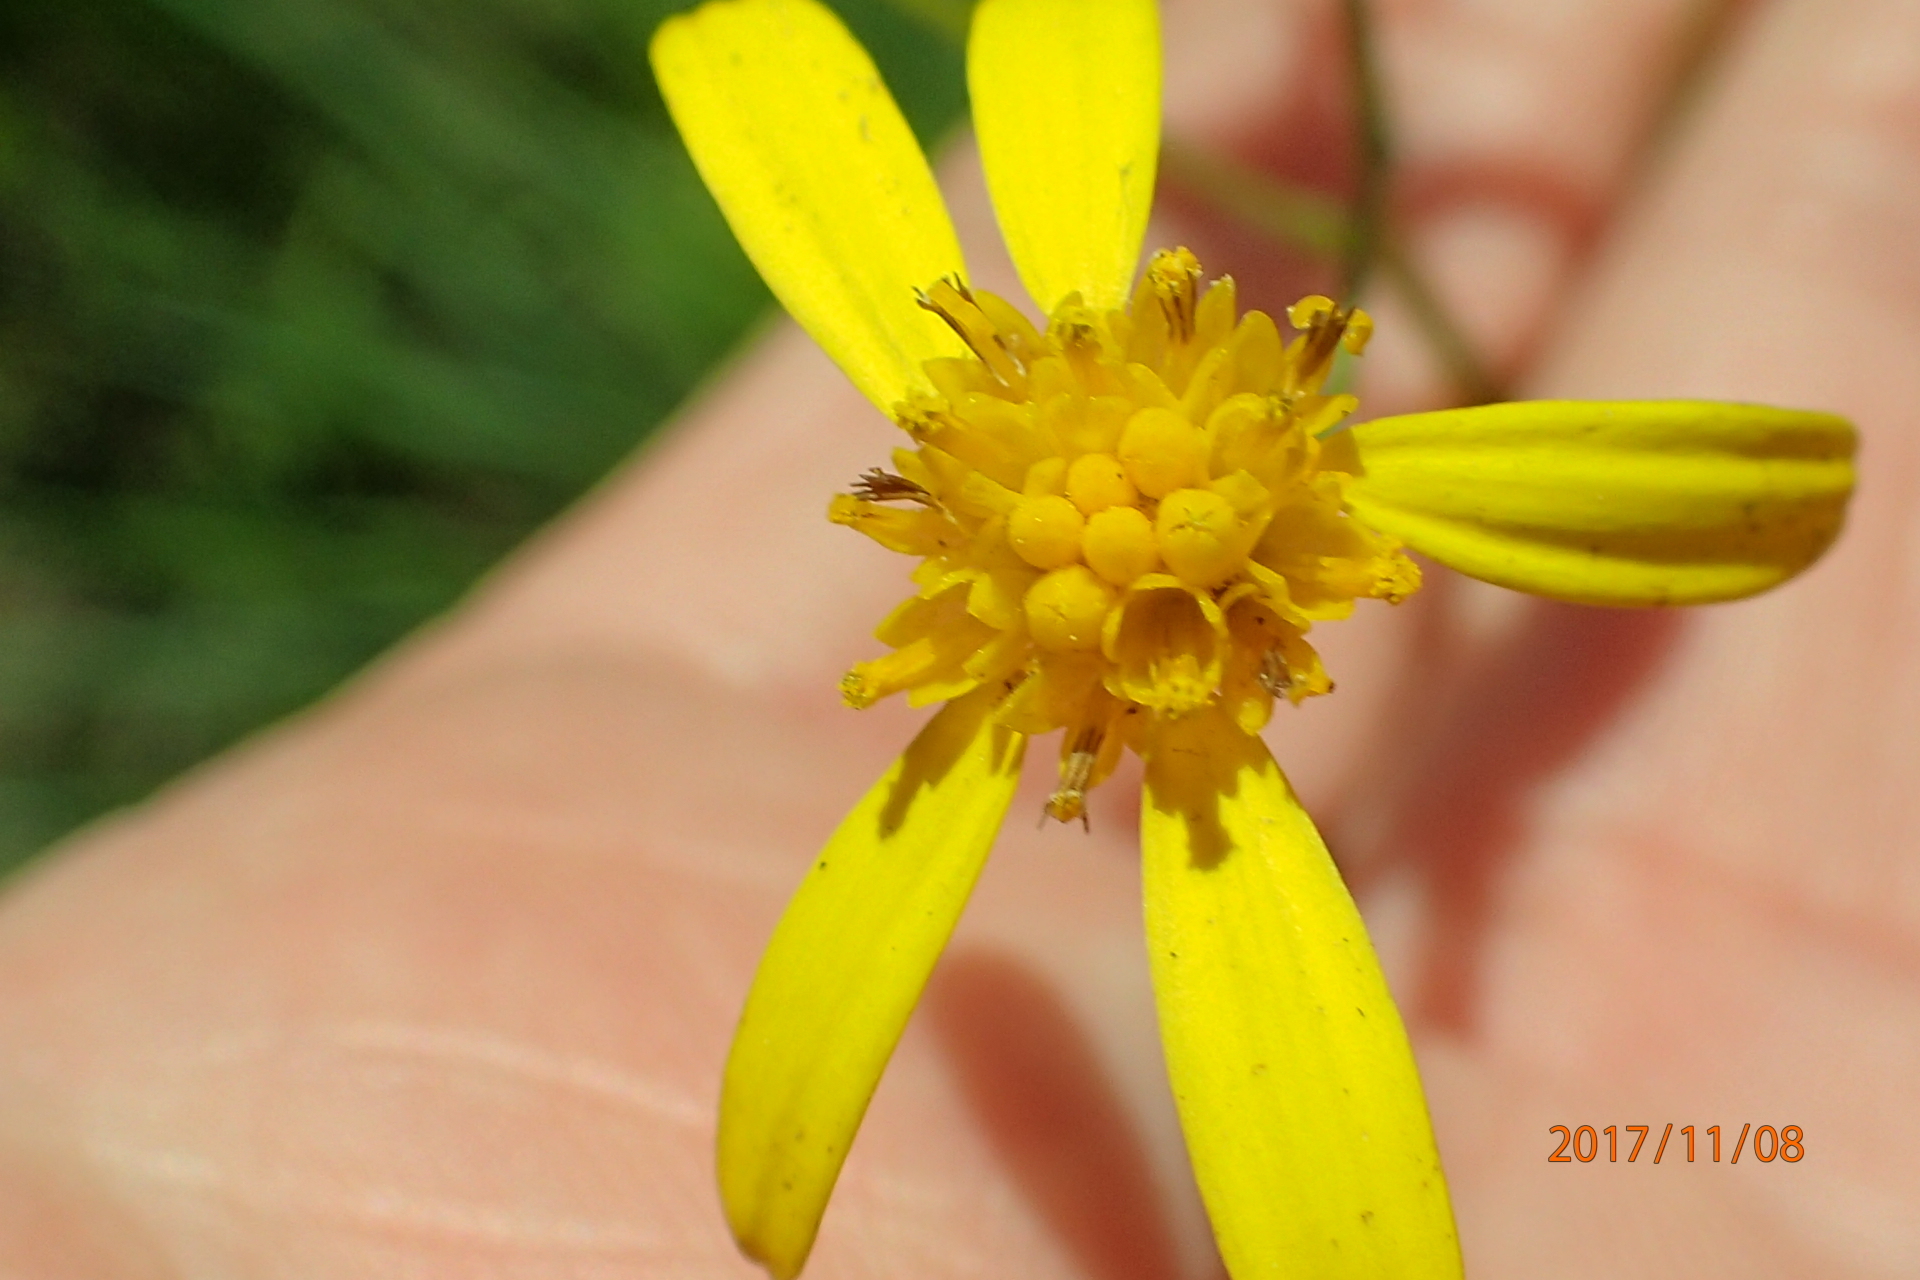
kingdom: Plantae
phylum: Tracheophyta
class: Magnoliopsida
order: Asterales
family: Asteraceae
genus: Senecio
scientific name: Senecio bupleuroides
